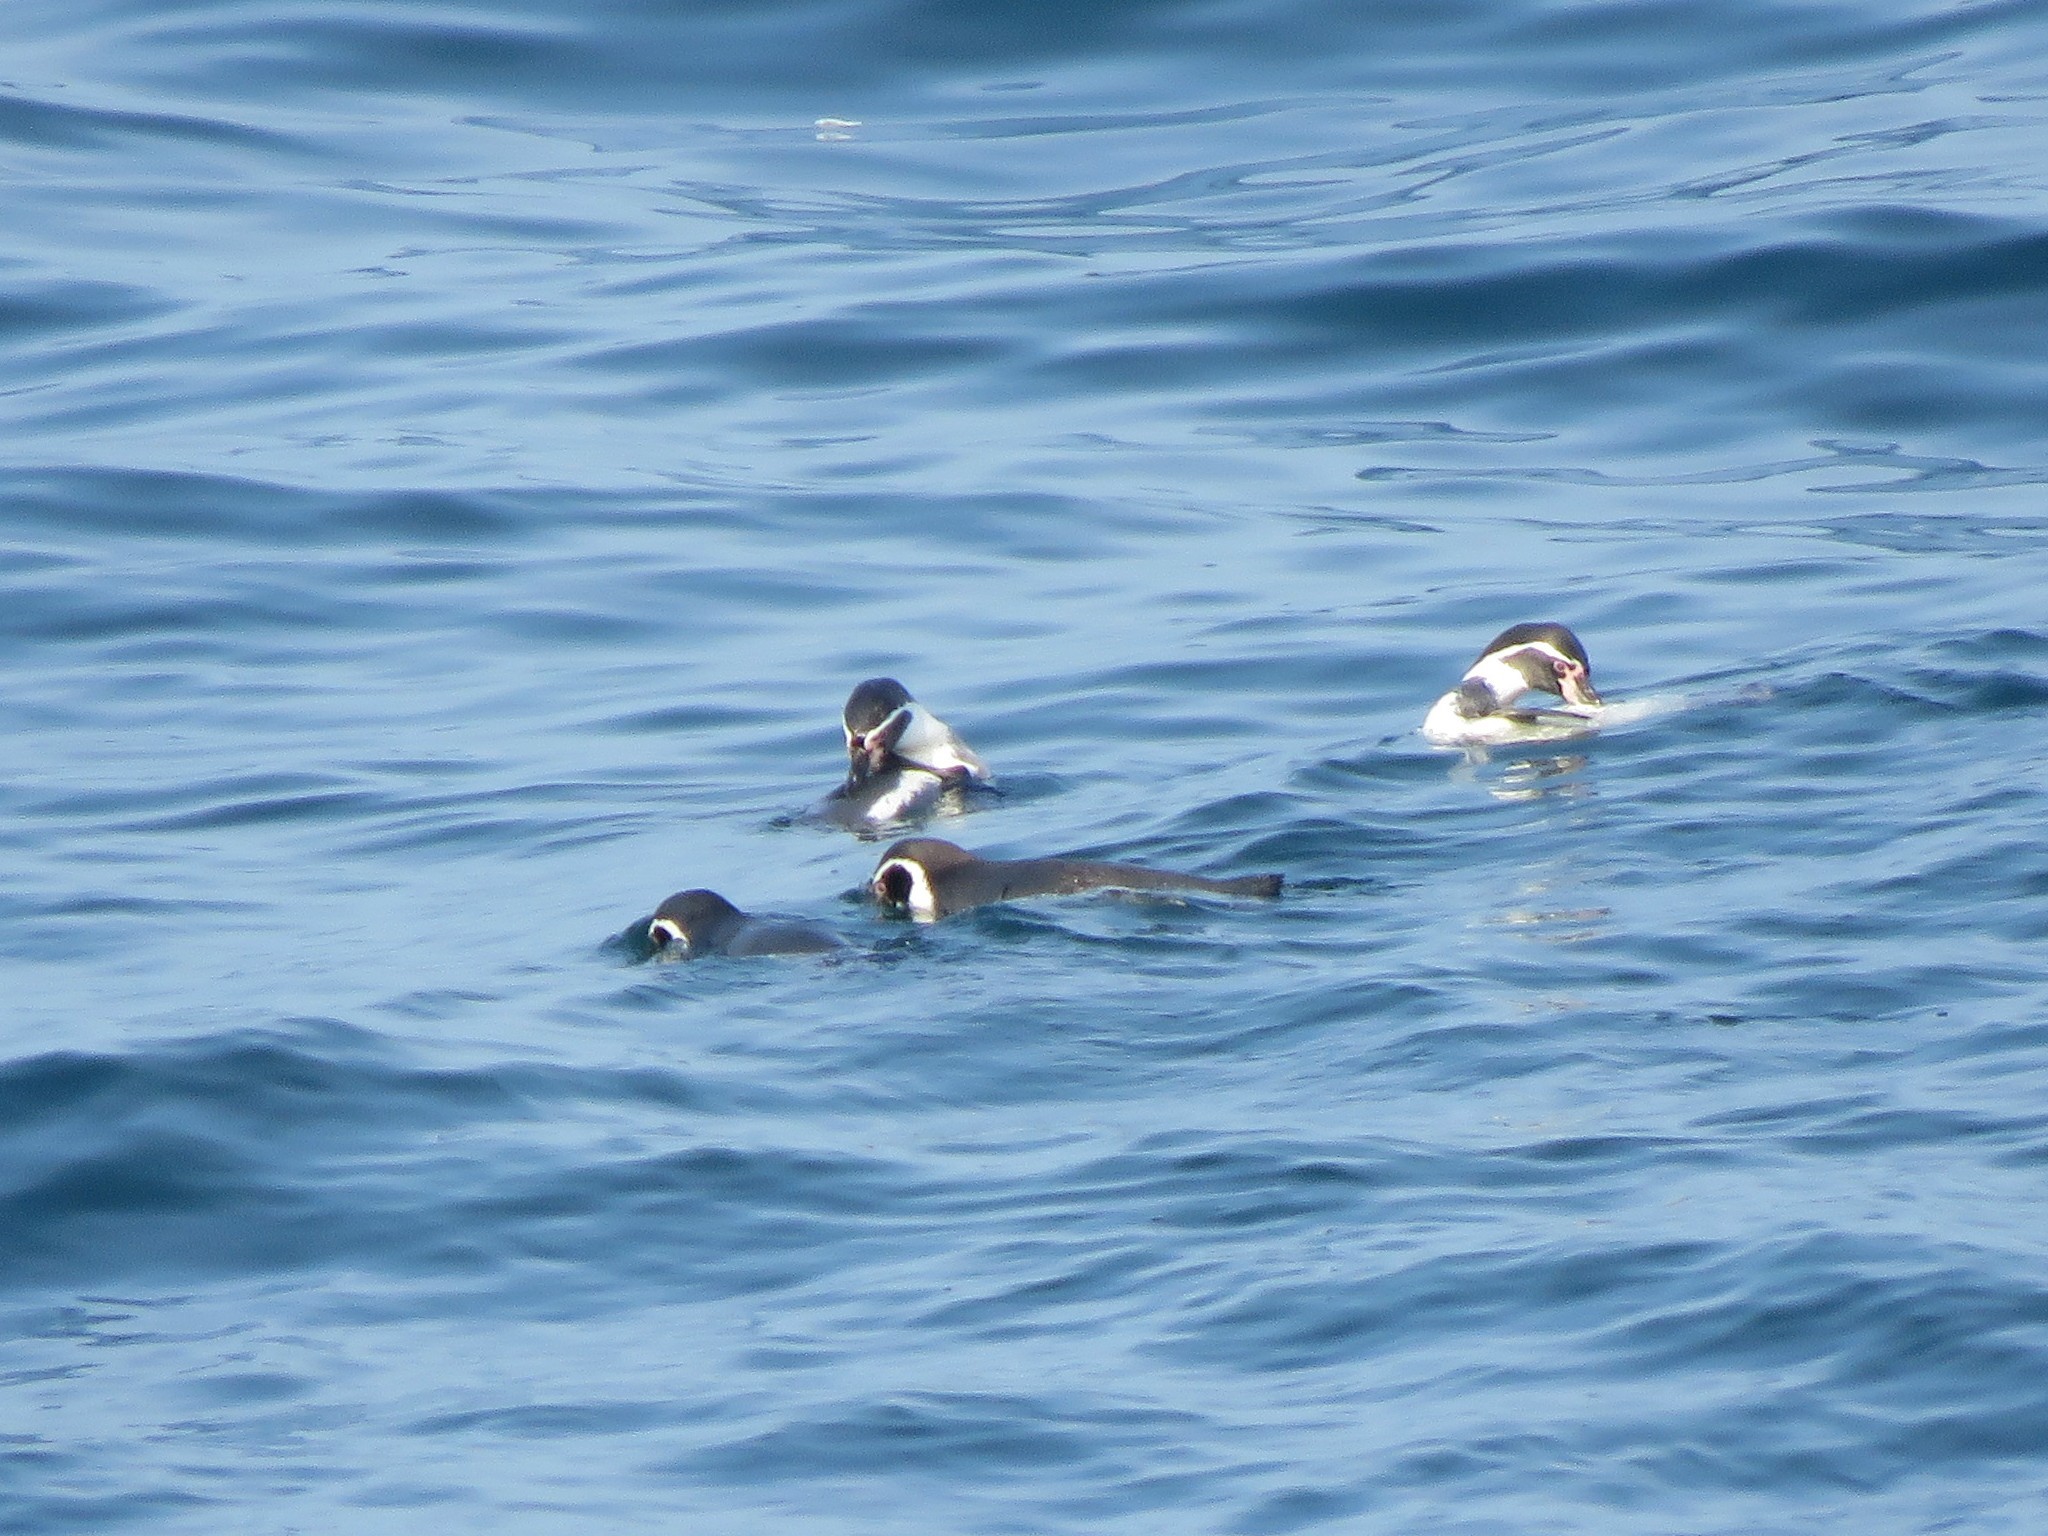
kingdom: Animalia
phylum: Chordata
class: Aves
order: Sphenisciformes
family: Spheniscidae
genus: Spheniscus
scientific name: Spheniscus humboldti
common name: Humboldt penguin
